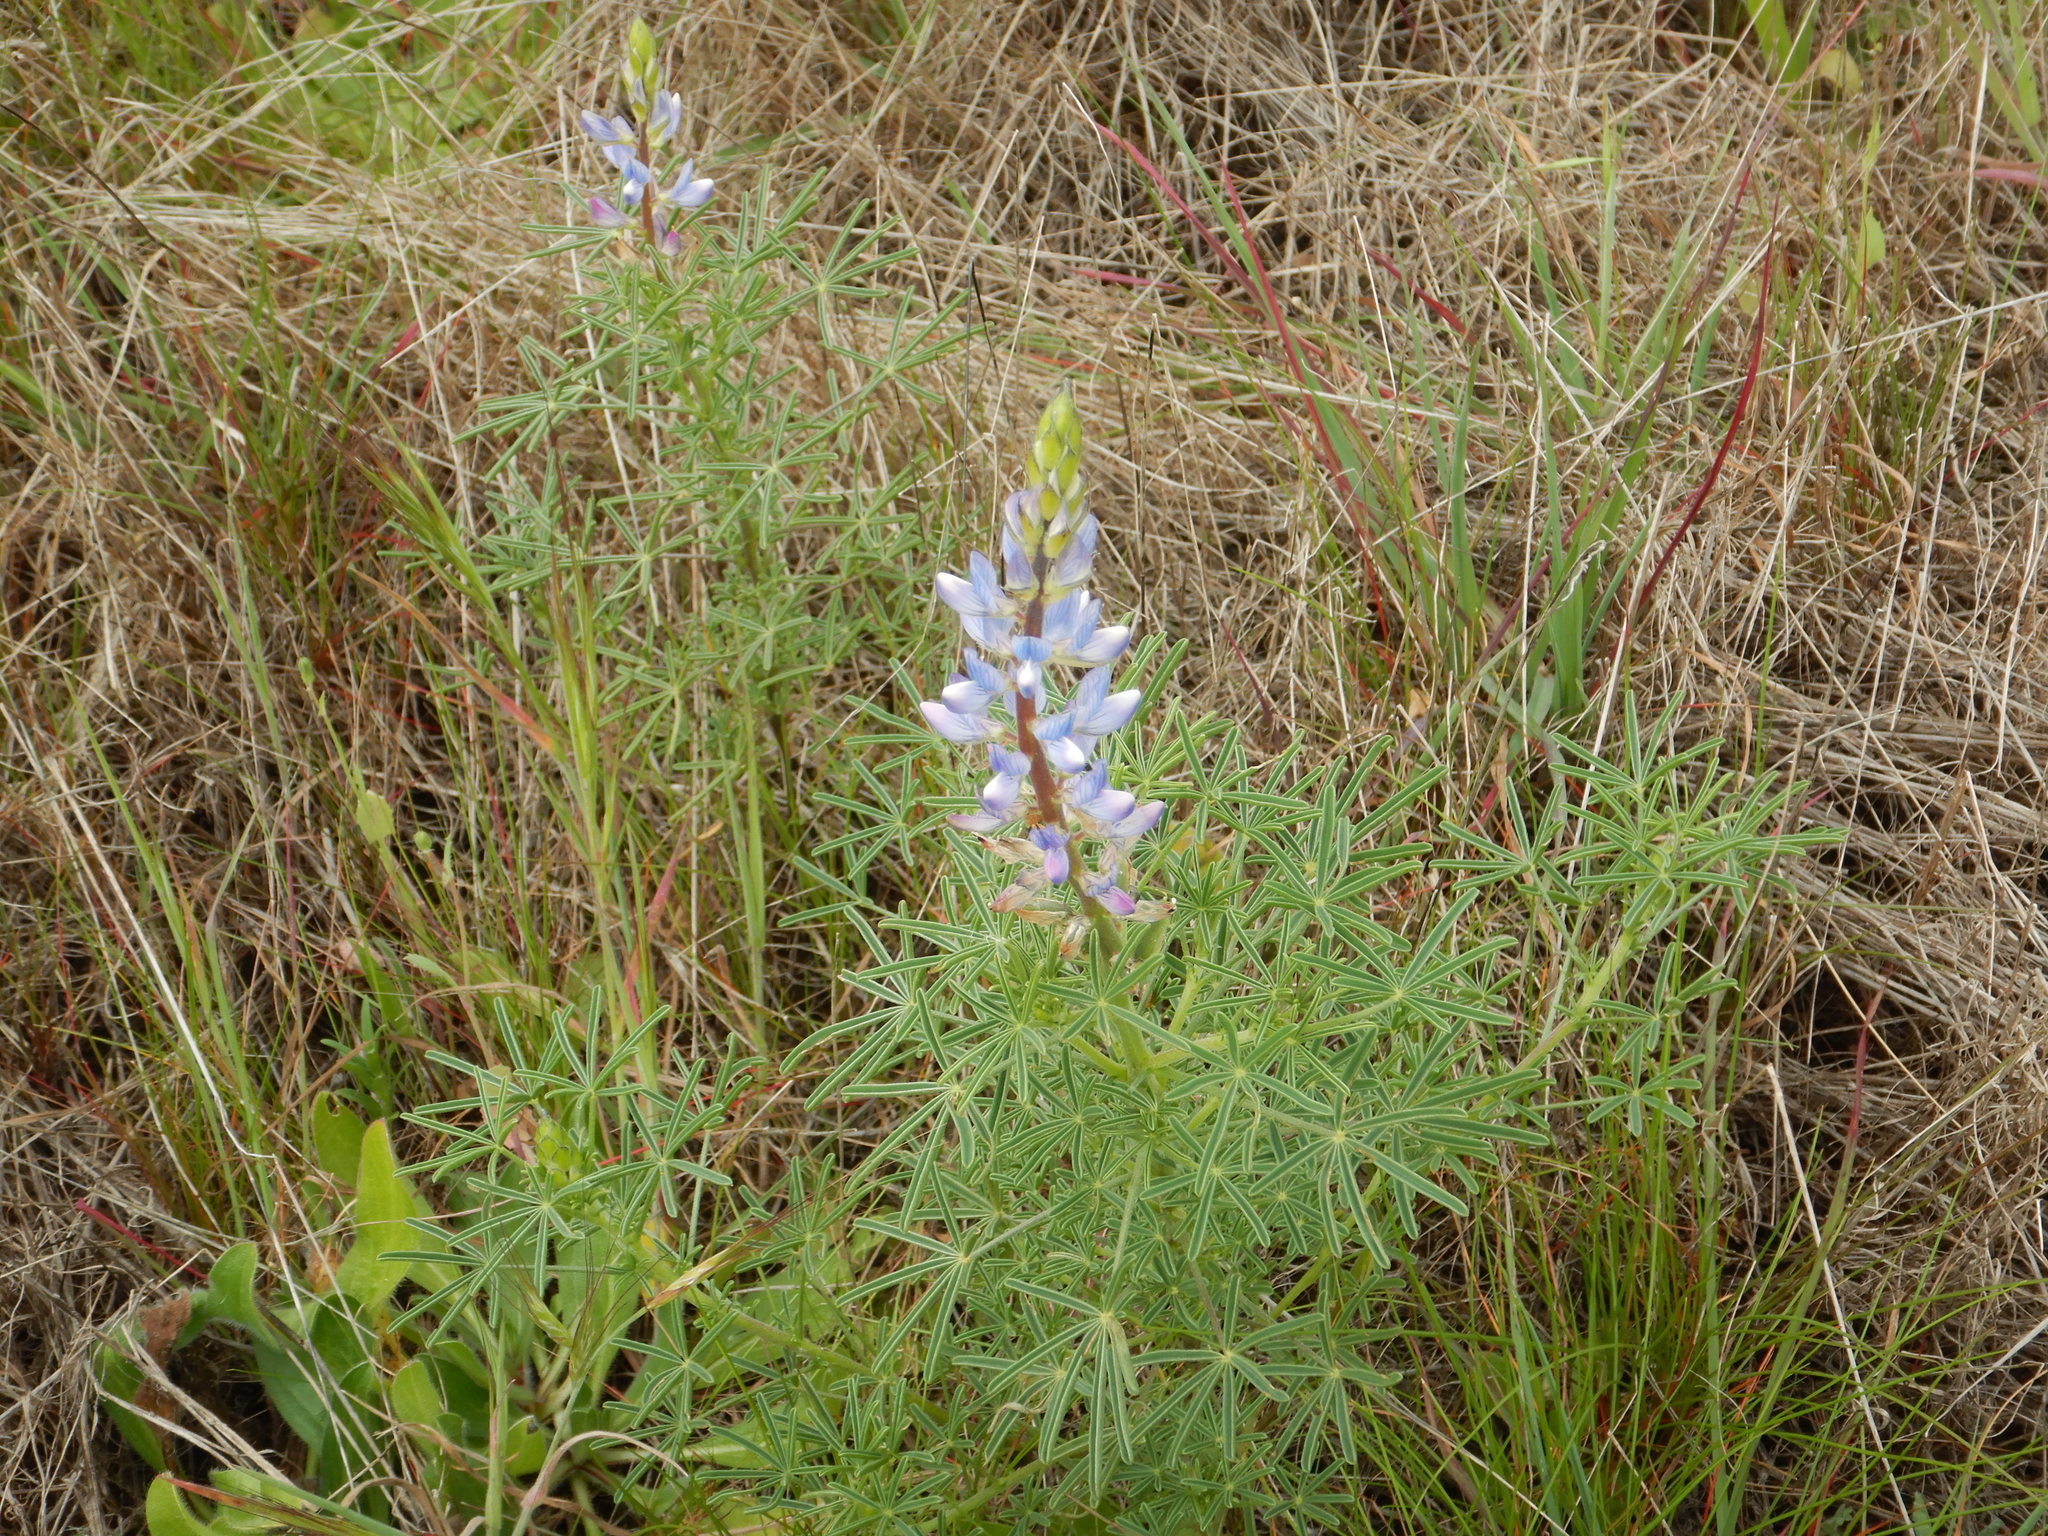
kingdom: Plantae
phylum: Tracheophyta
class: Magnoliopsida
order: Fabales
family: Fabaceae
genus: Lupinus
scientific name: Lupinus angustifolius
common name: Narrow-leaved lupin
